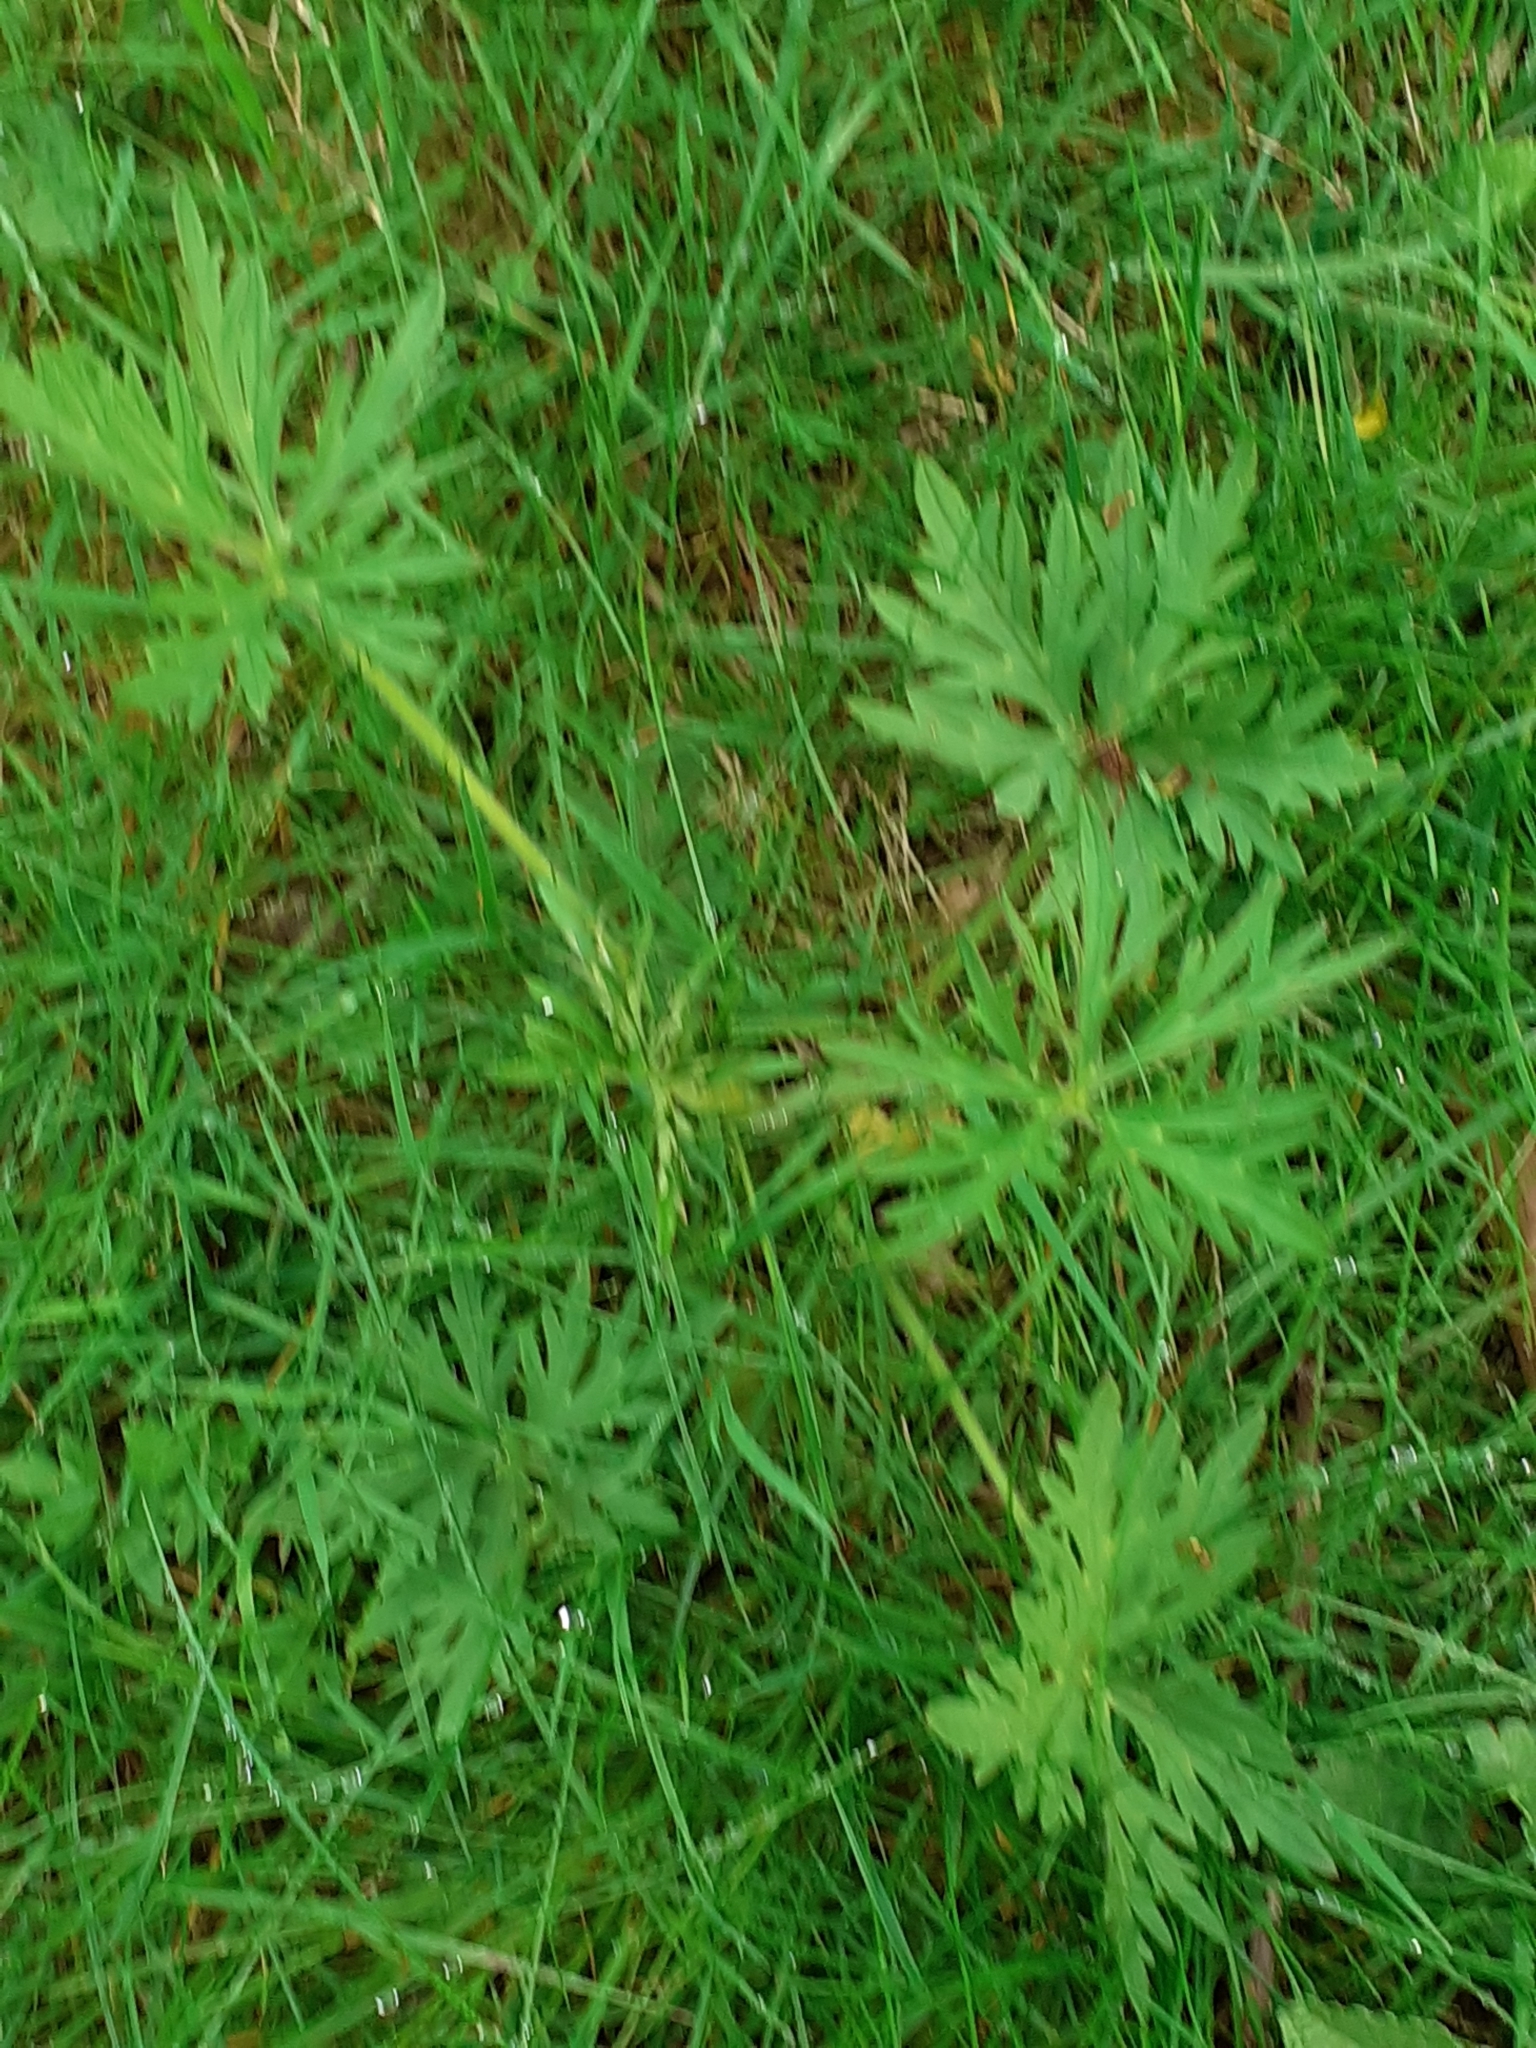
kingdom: Plantae
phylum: Tracheophyta
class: Magnoliopsida
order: Ranunculales
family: Ranunculaceae
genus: Ranunculus
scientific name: Ranunculus acris
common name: Meadow buttercup
